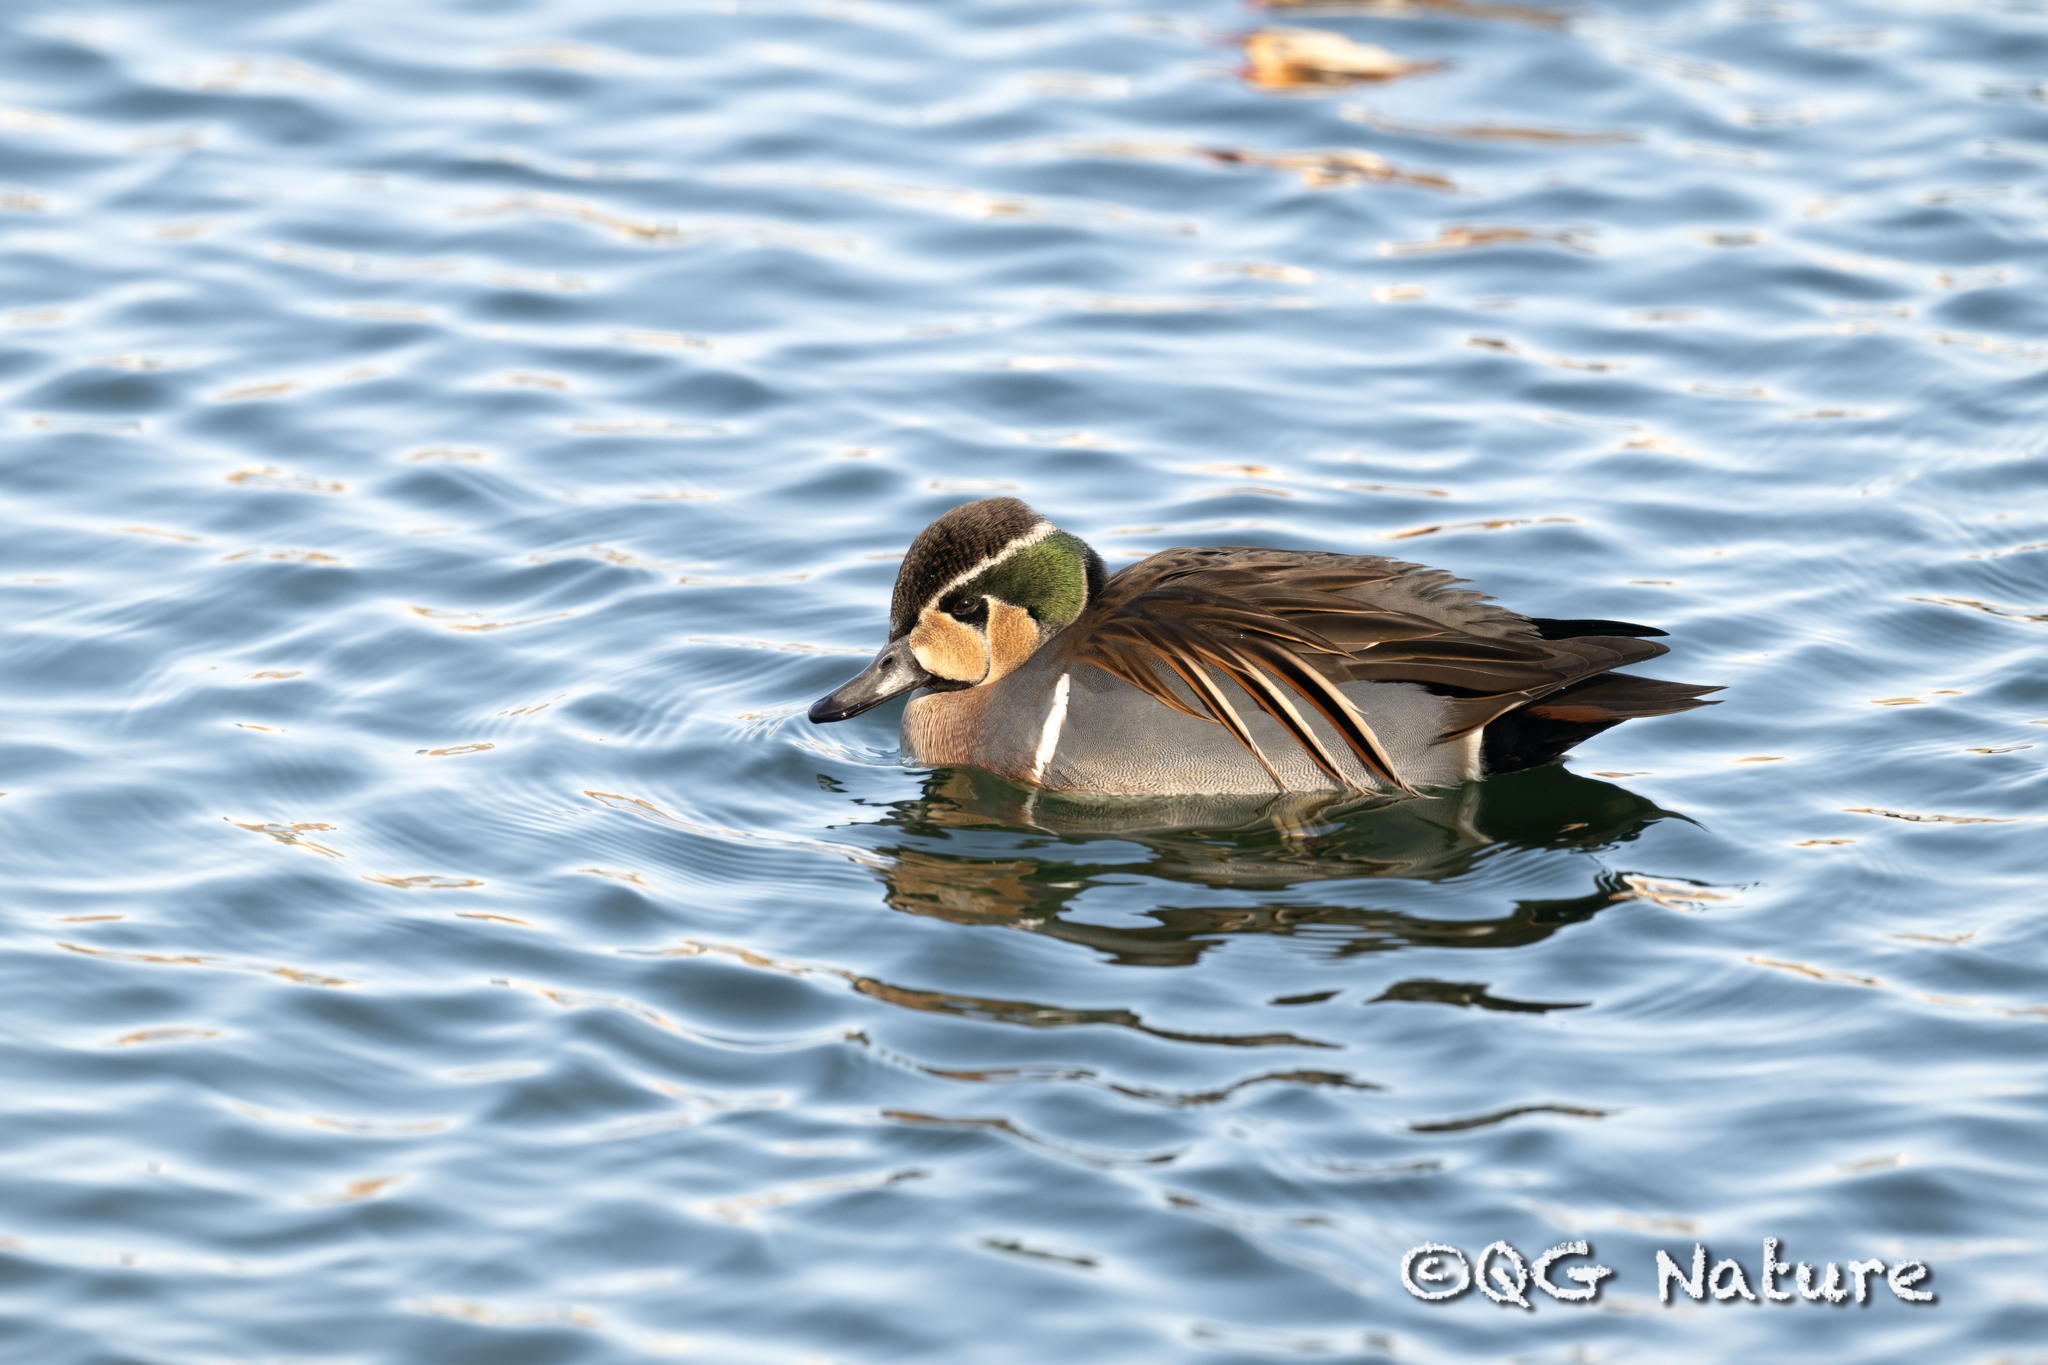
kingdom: Animalia
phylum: Chordata
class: Aves
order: Anseriformes
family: Anatidae
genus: Sibirionetta
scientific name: Sibirionetta formosa
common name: Baikal teal
